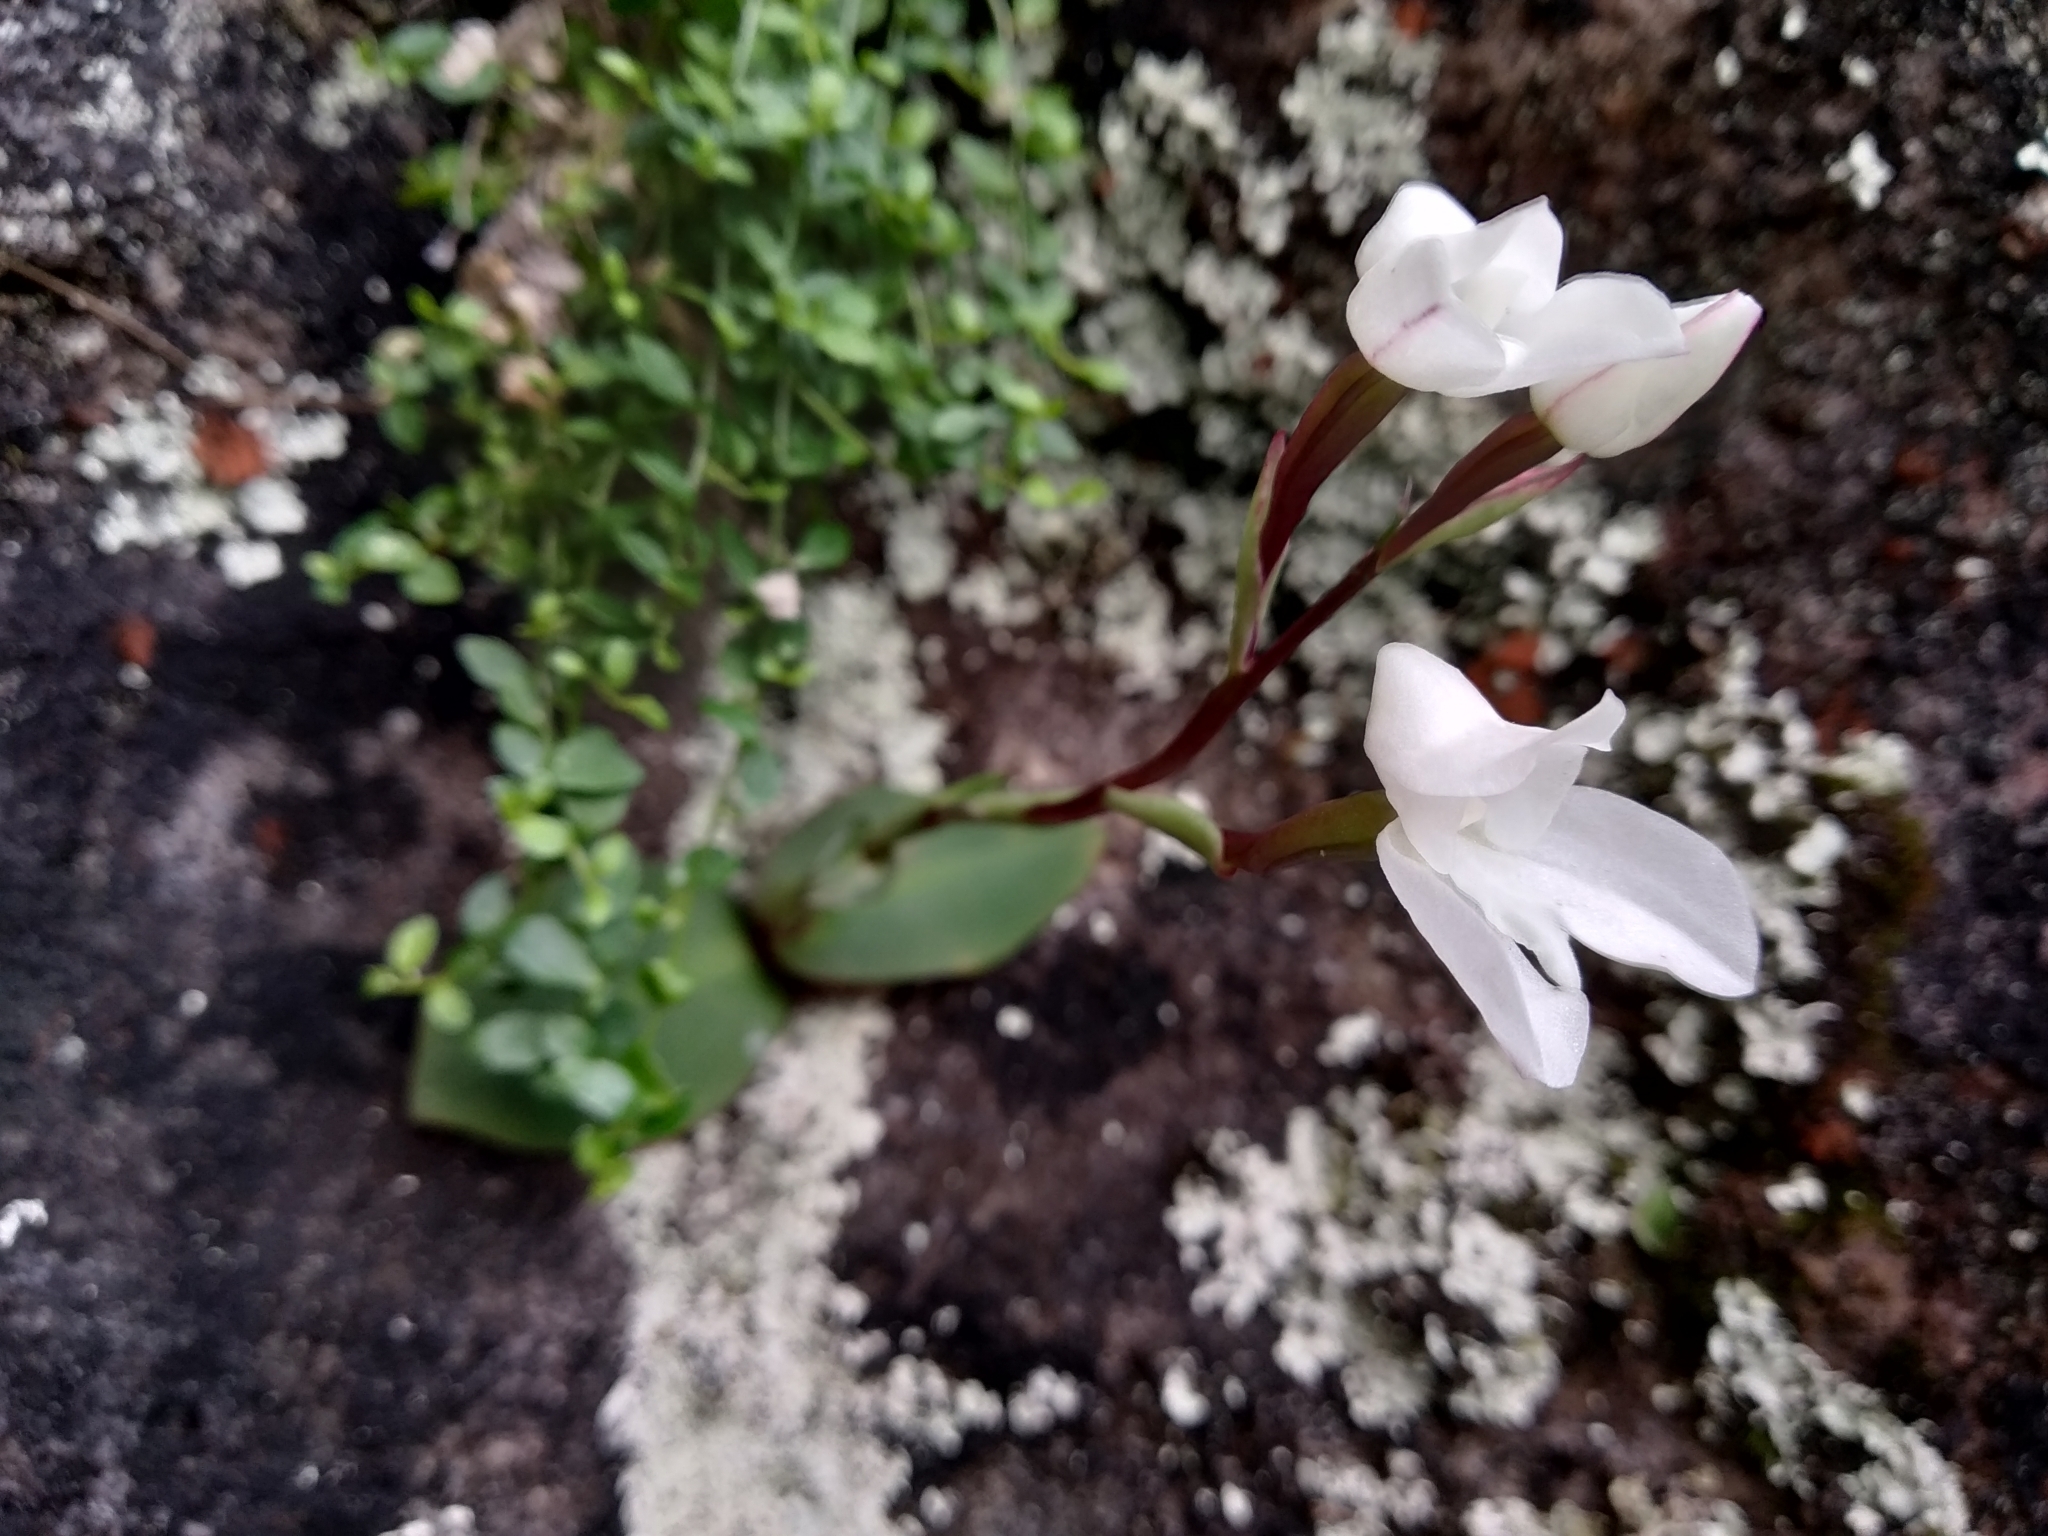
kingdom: Plantae
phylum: Tracheophyta
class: Liliopsida
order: Asparagales
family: Orchidaceae
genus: Disa
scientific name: Disa rosea
